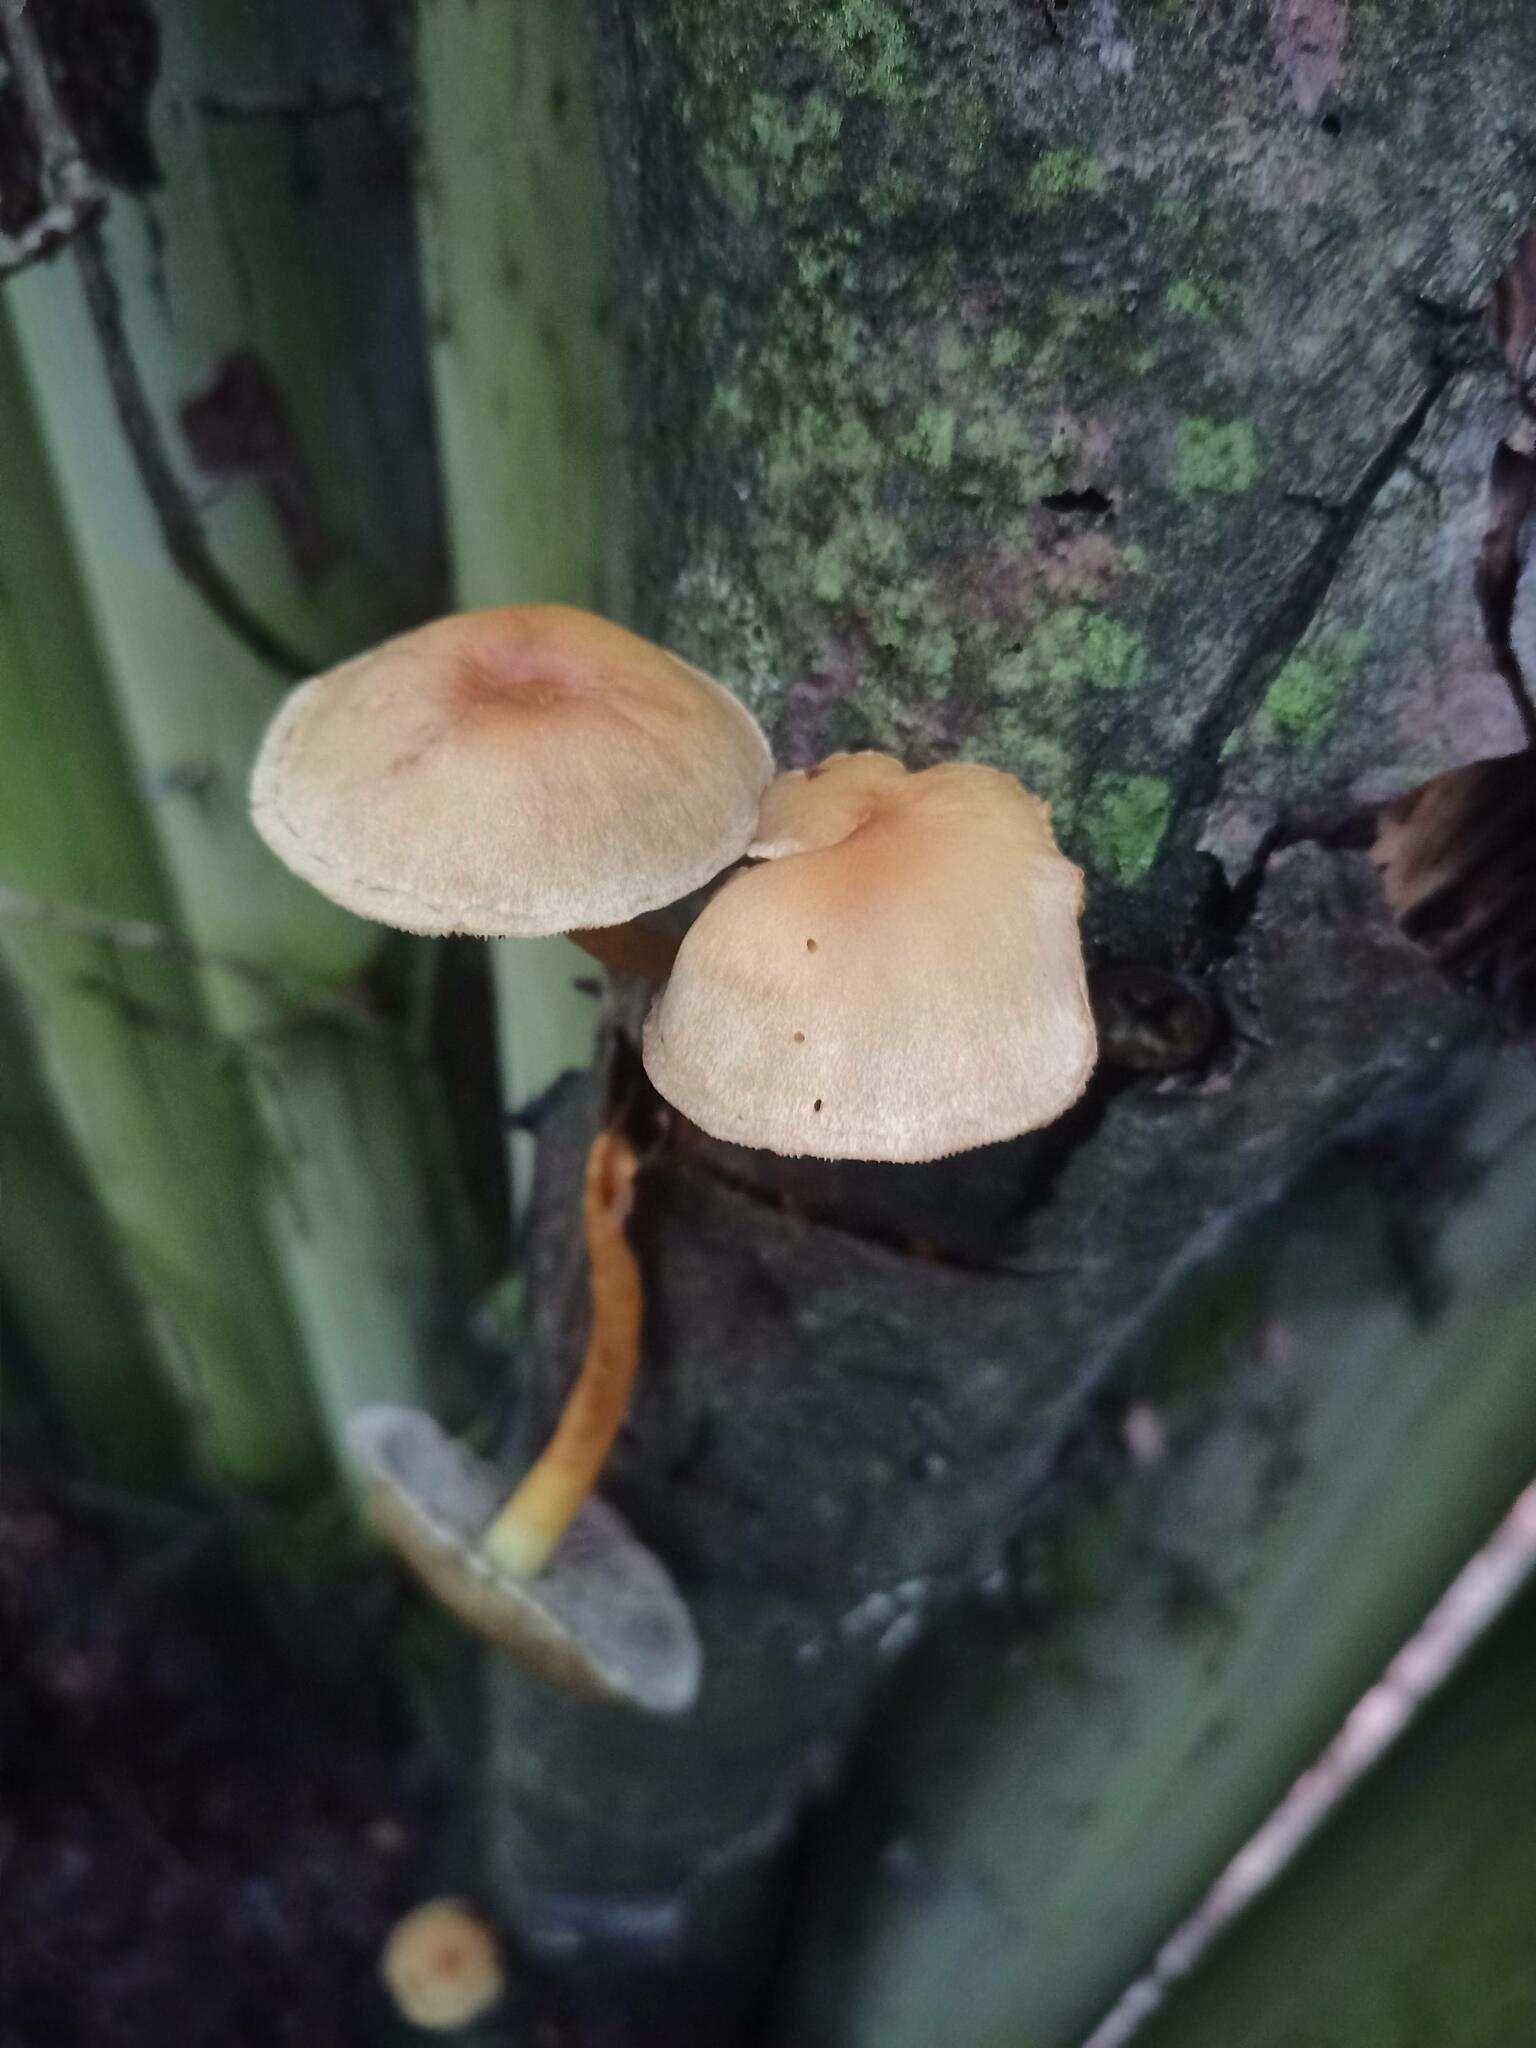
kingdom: Fungi
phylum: Basidiomycota
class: Agaricomycetes
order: Agaricales
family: Strophariaceae
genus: Hypholoma
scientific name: Hypholoma fasciculare
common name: Sulphur tuft
